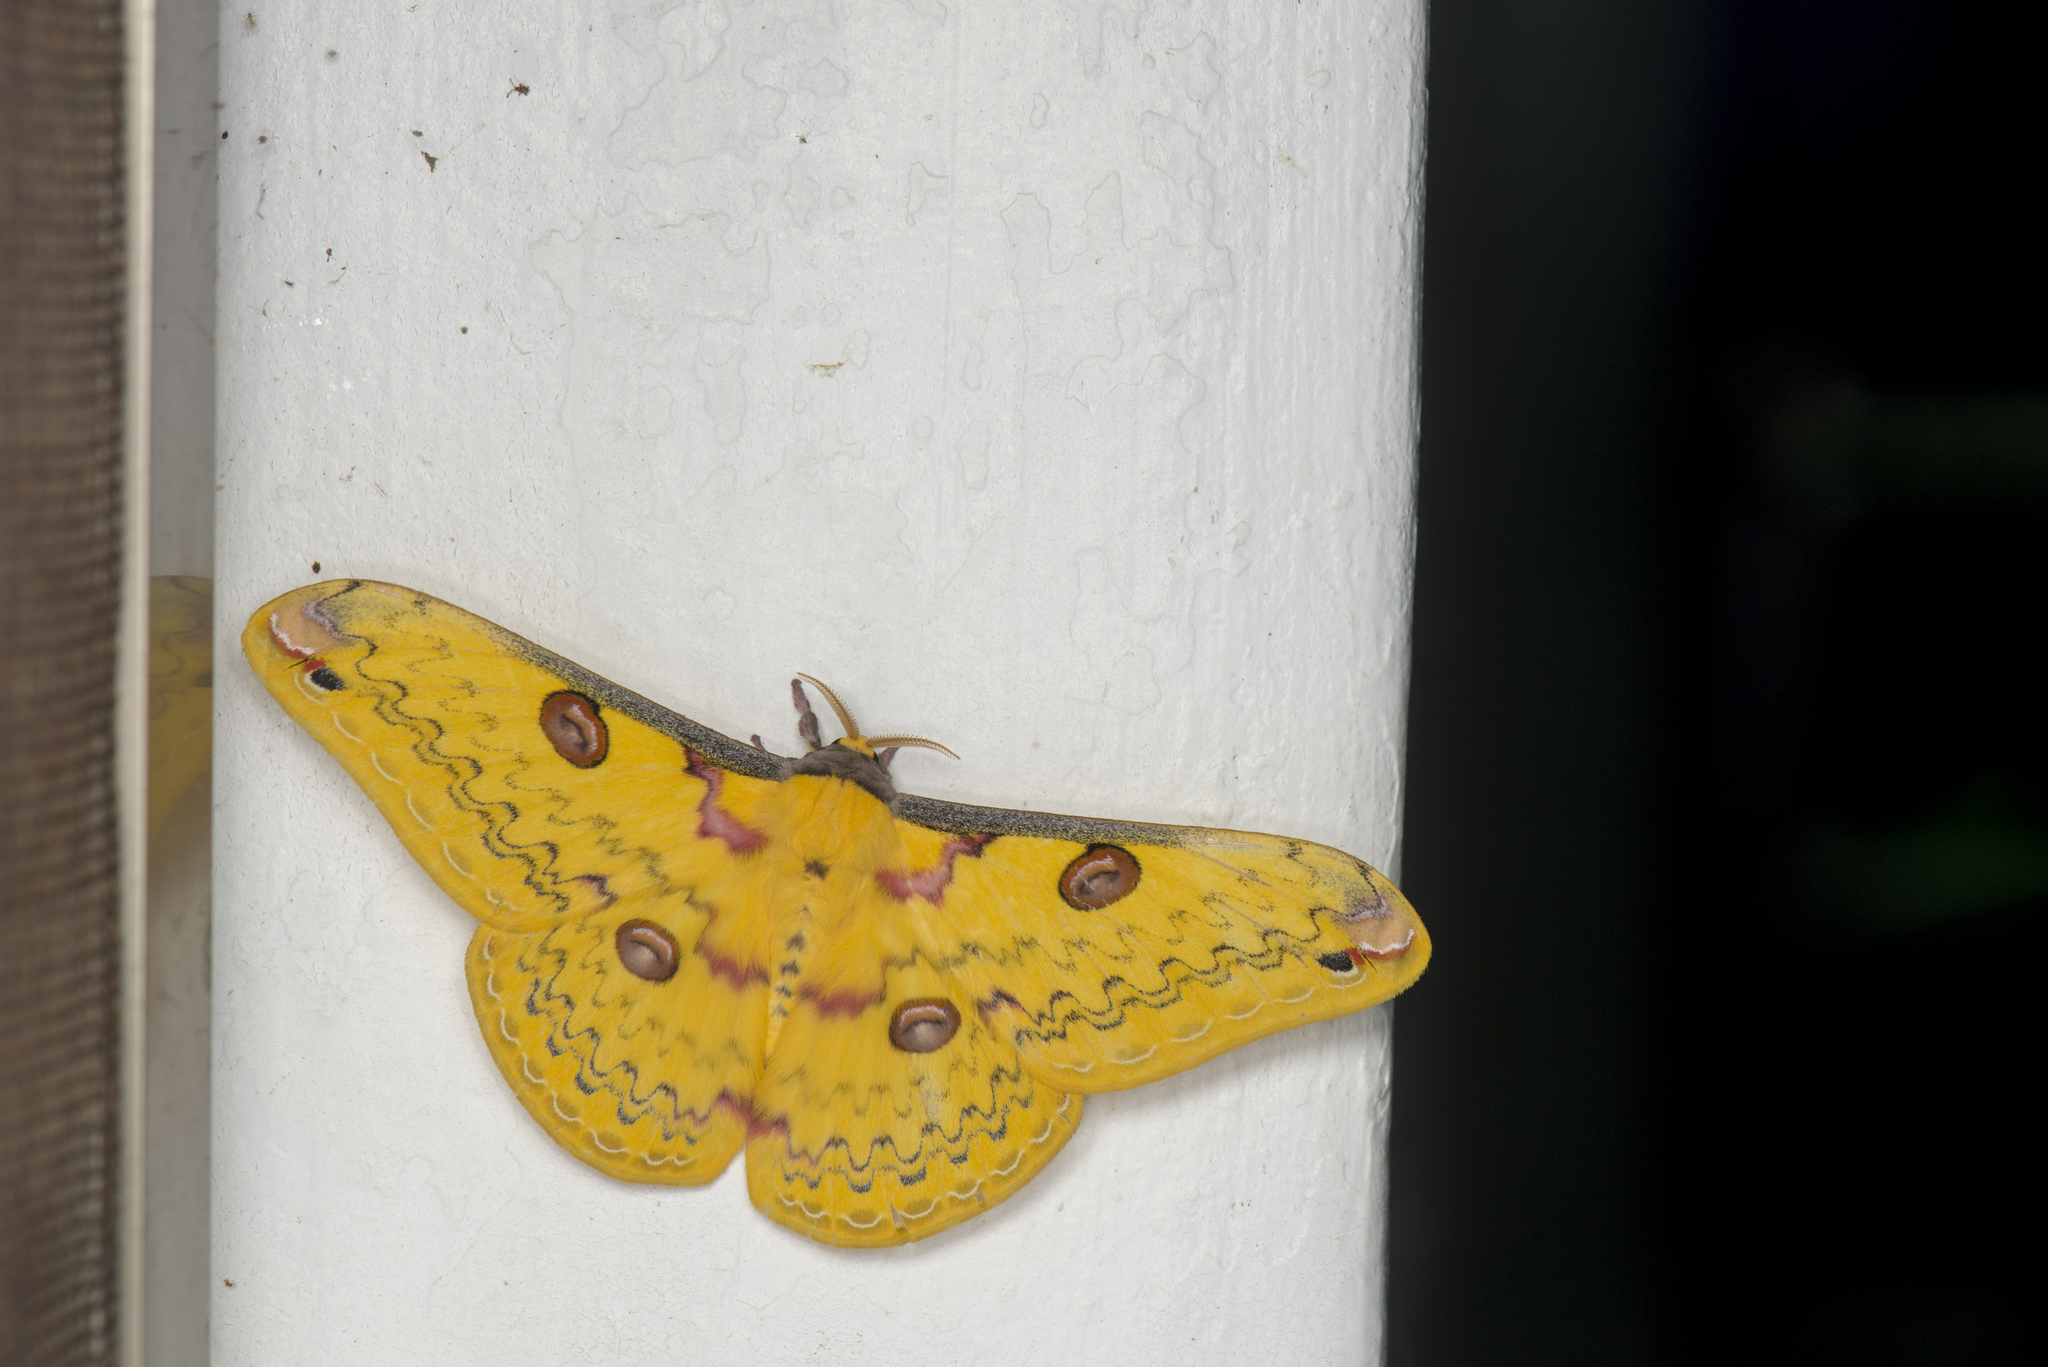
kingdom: Animalia
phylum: Arthropoda
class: Insecta
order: Lepidoptera
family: Saturniidae
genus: Loepa
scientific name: Loepa formosensis
